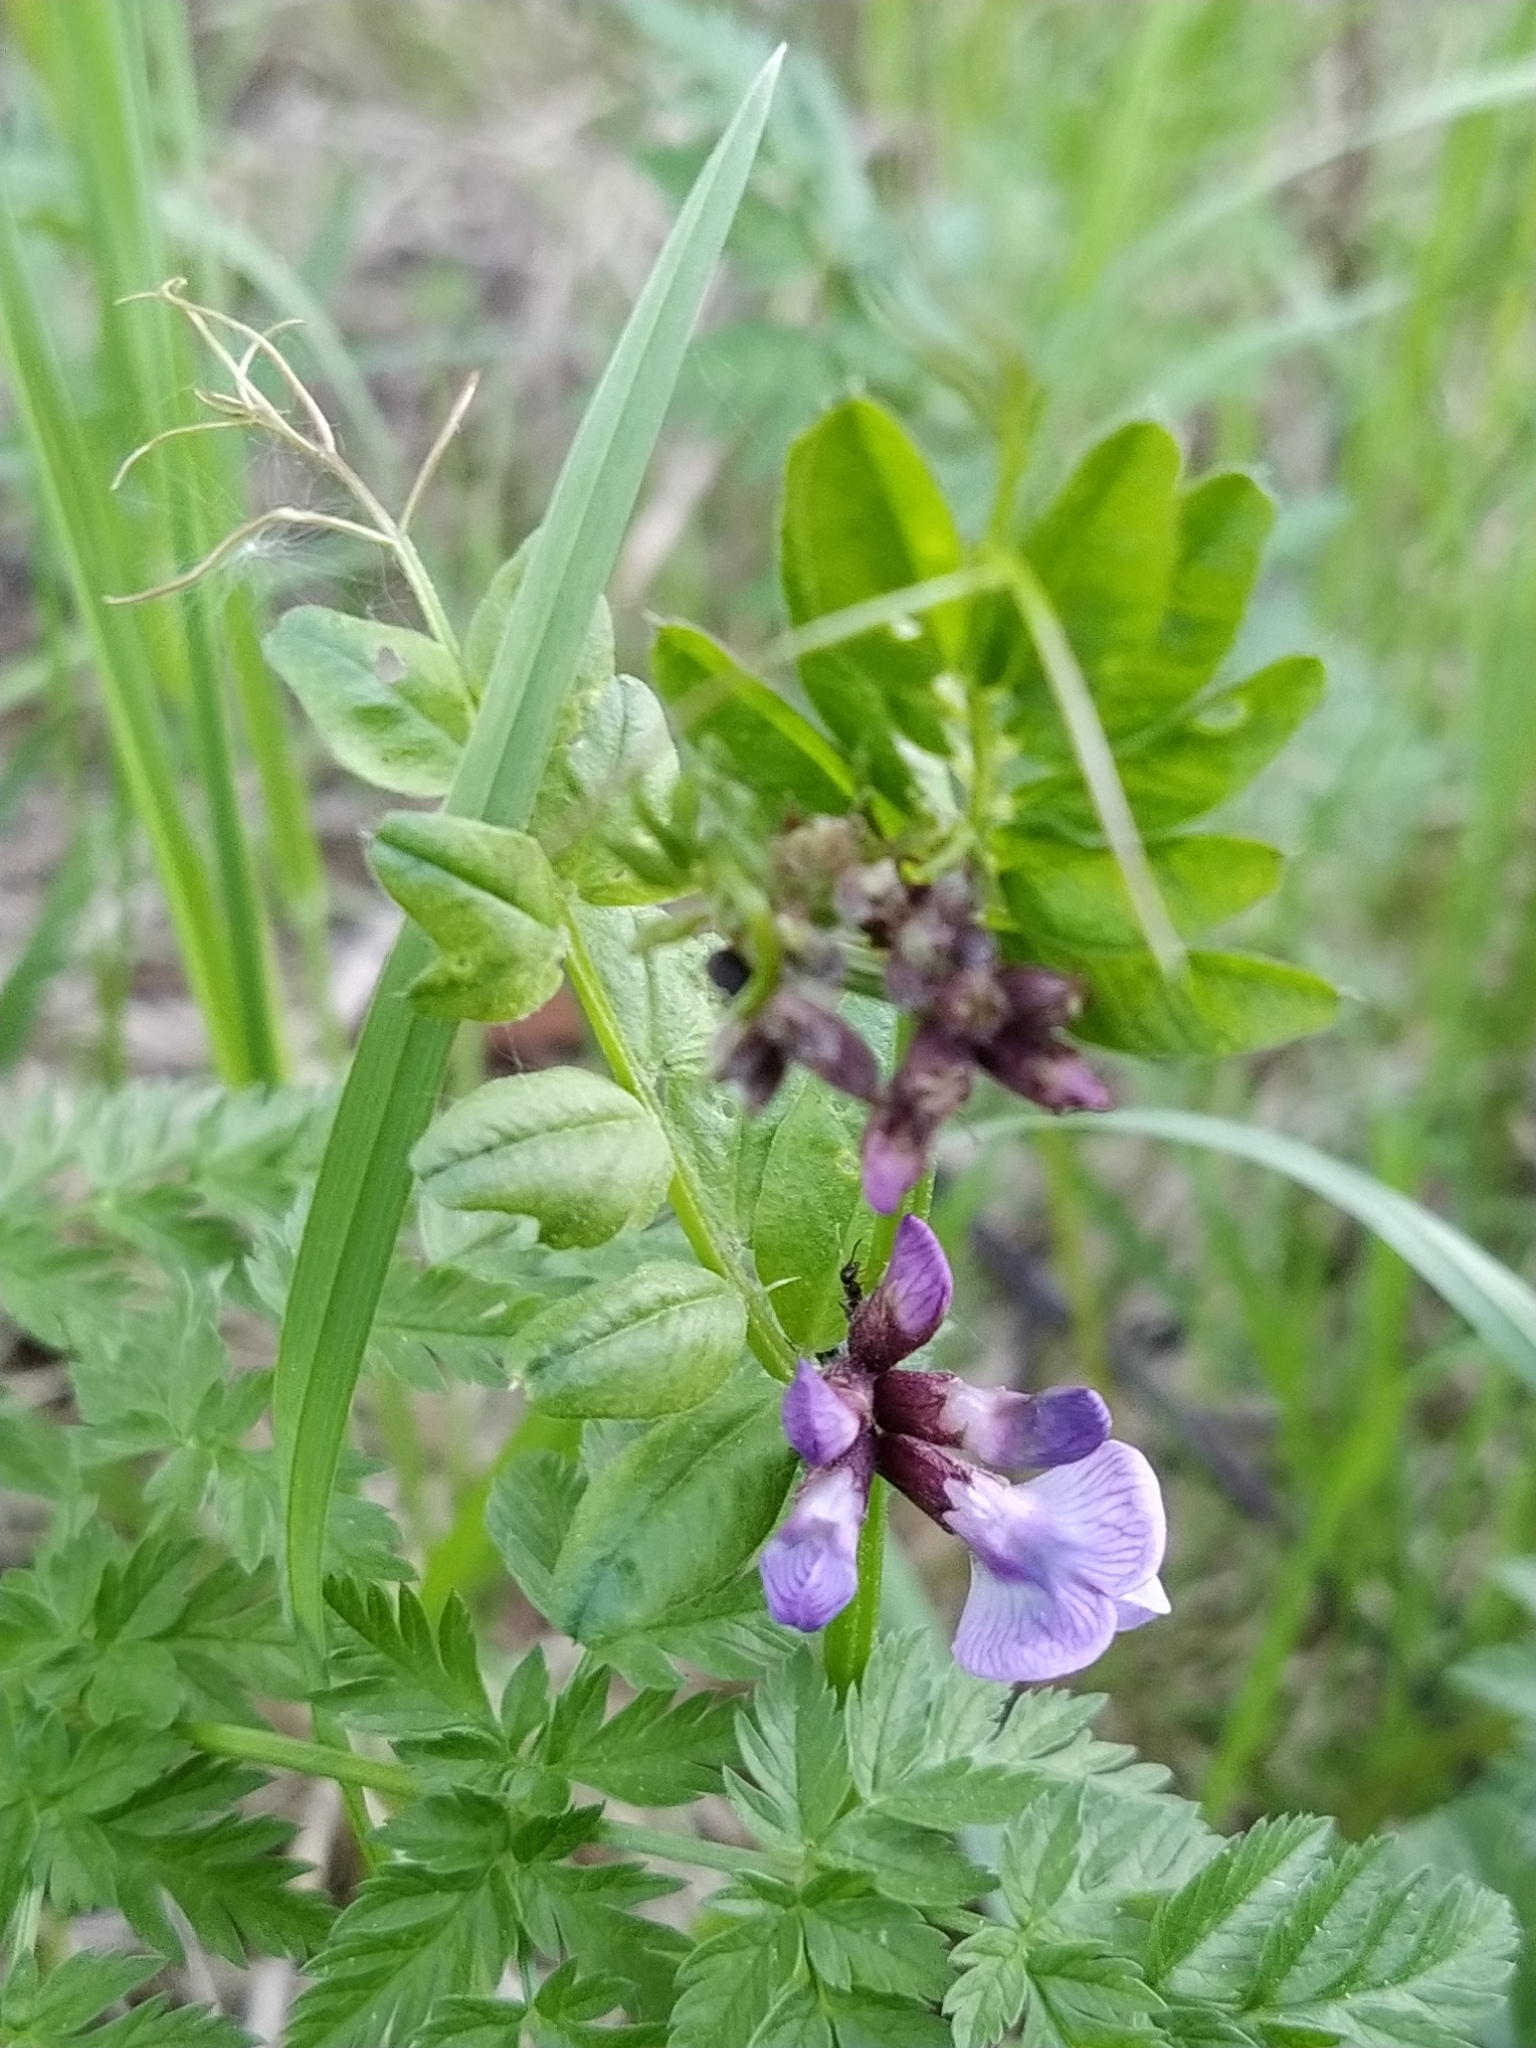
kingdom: Plantae
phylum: Tracheophyta
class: Magnoliopsida
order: Fabales
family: Fabaceae
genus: Vicia
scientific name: Vicia sepium
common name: Bush vetch
